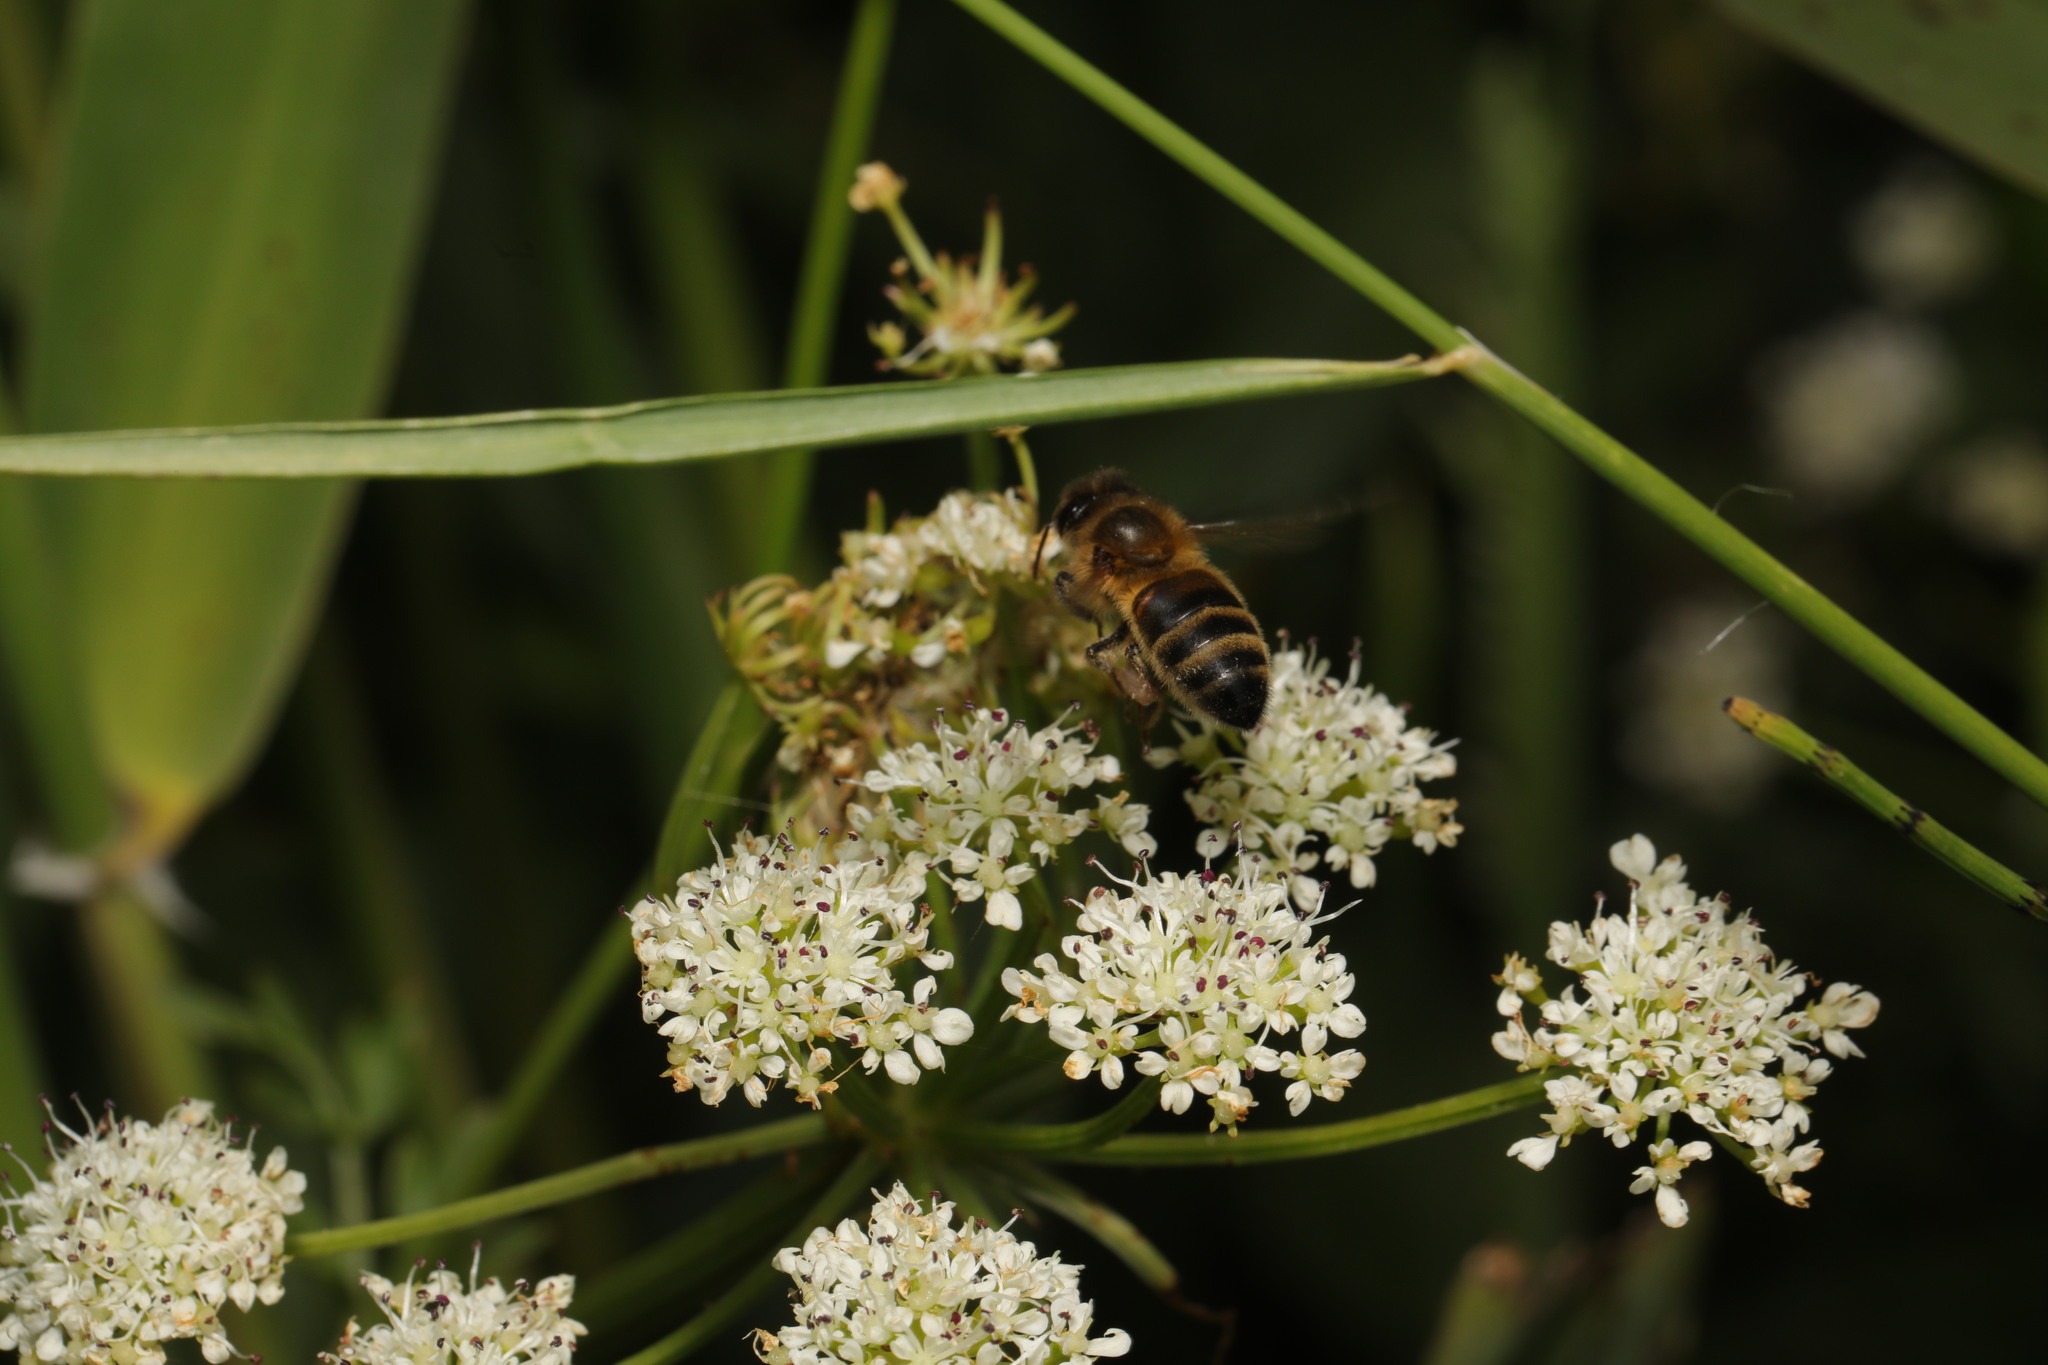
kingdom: Animalia
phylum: Arthropoda
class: Insecta
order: Hymenoptera
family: Apidae
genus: Apis
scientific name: Apis mellifera
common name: Honey bee
